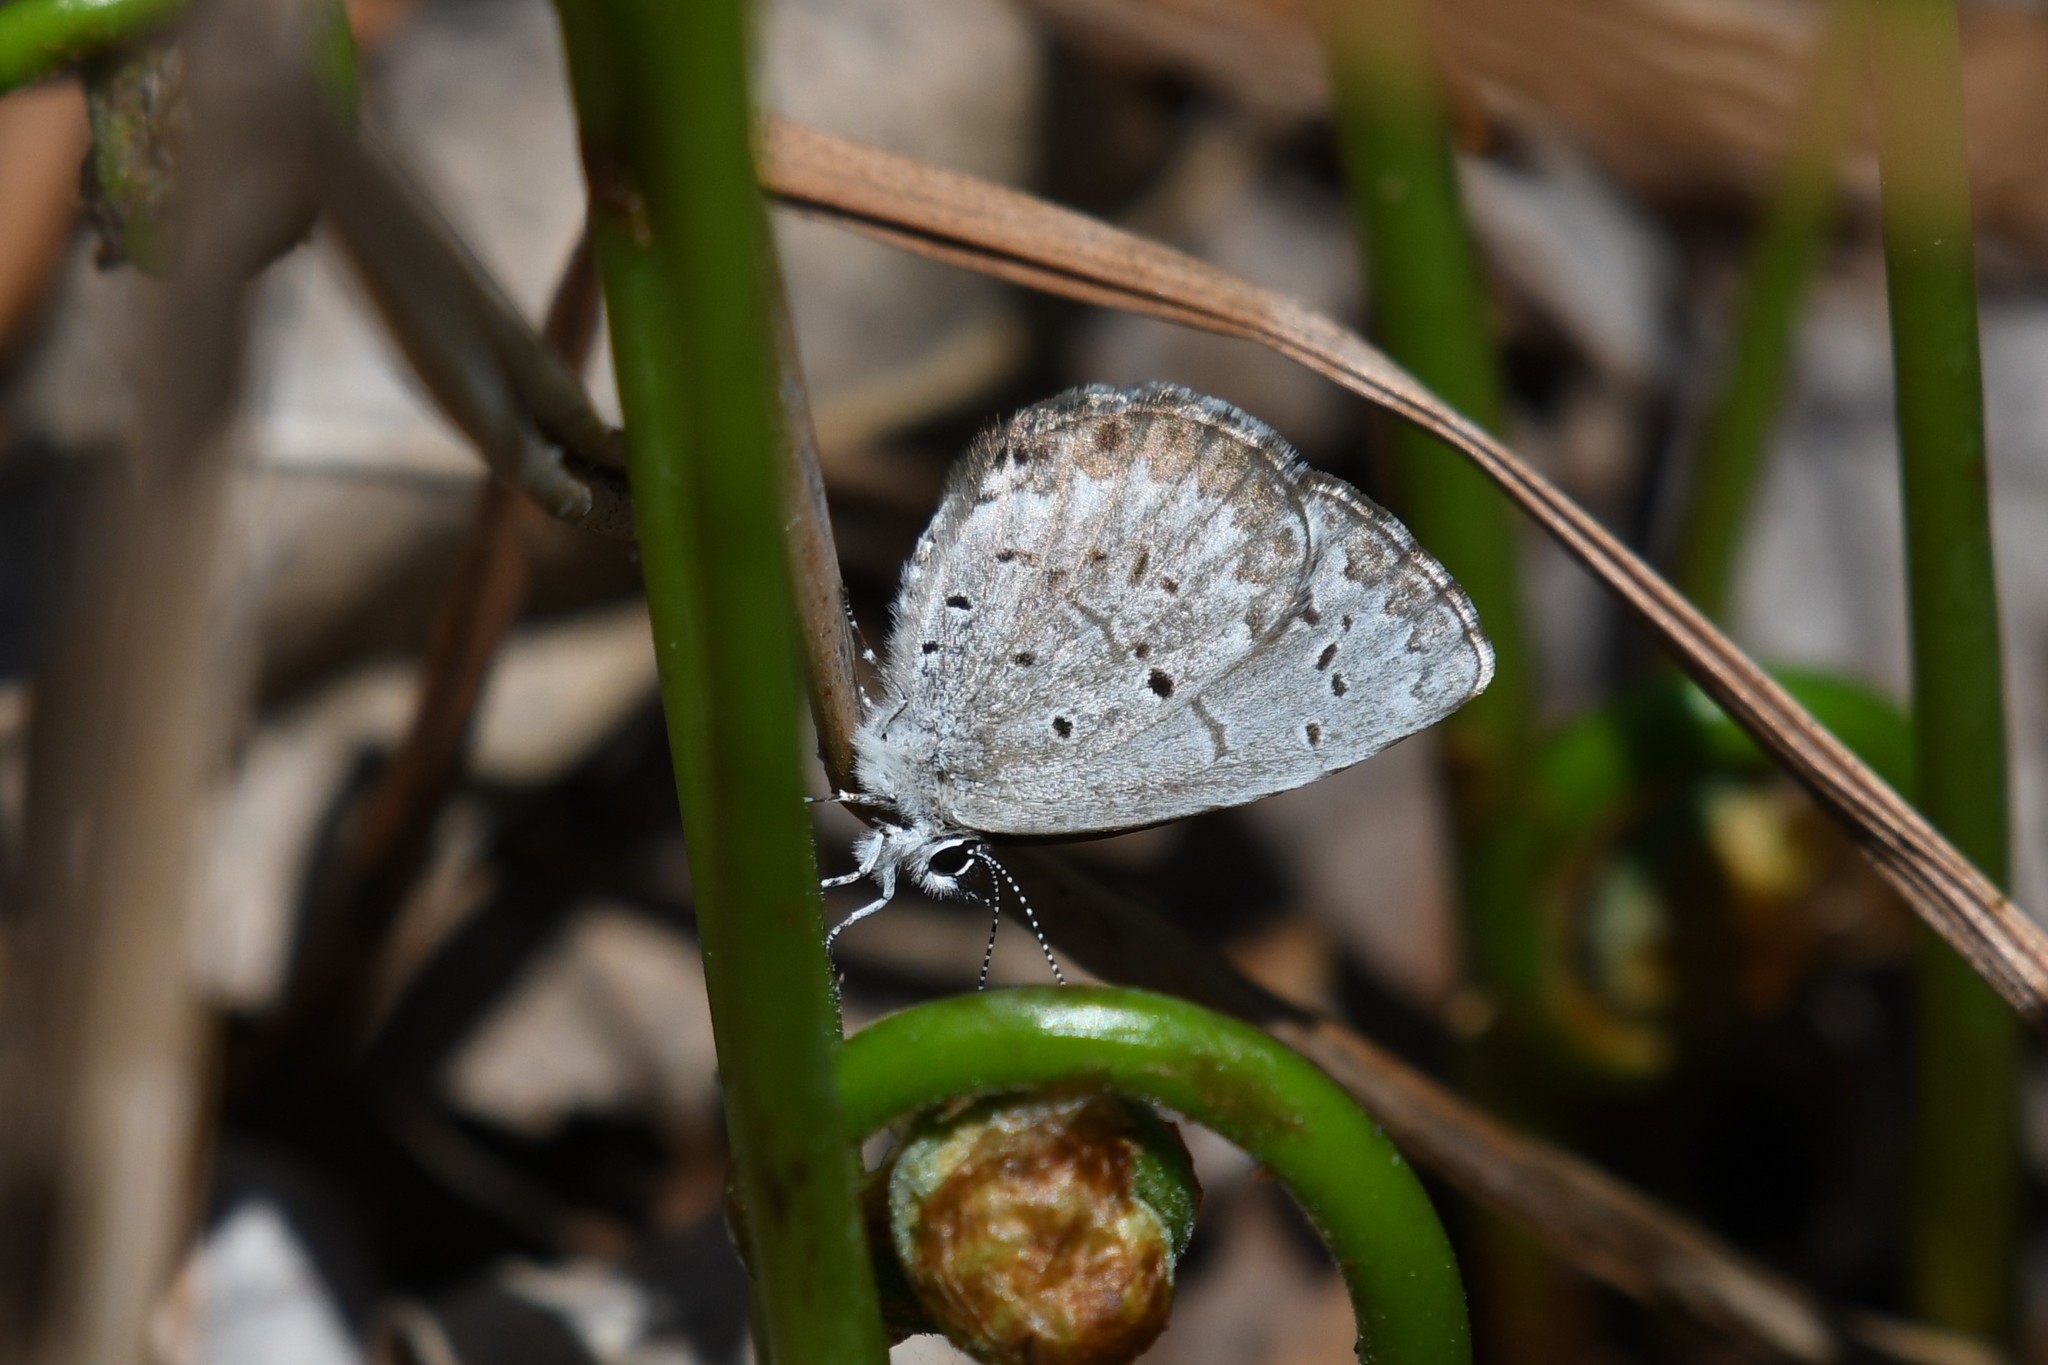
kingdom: Animalia
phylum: Arthropoda
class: Insecta
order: Lepidoptera
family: Lycaenidae
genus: Celastrina
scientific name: Celastrina lucia
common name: Lucia azure
